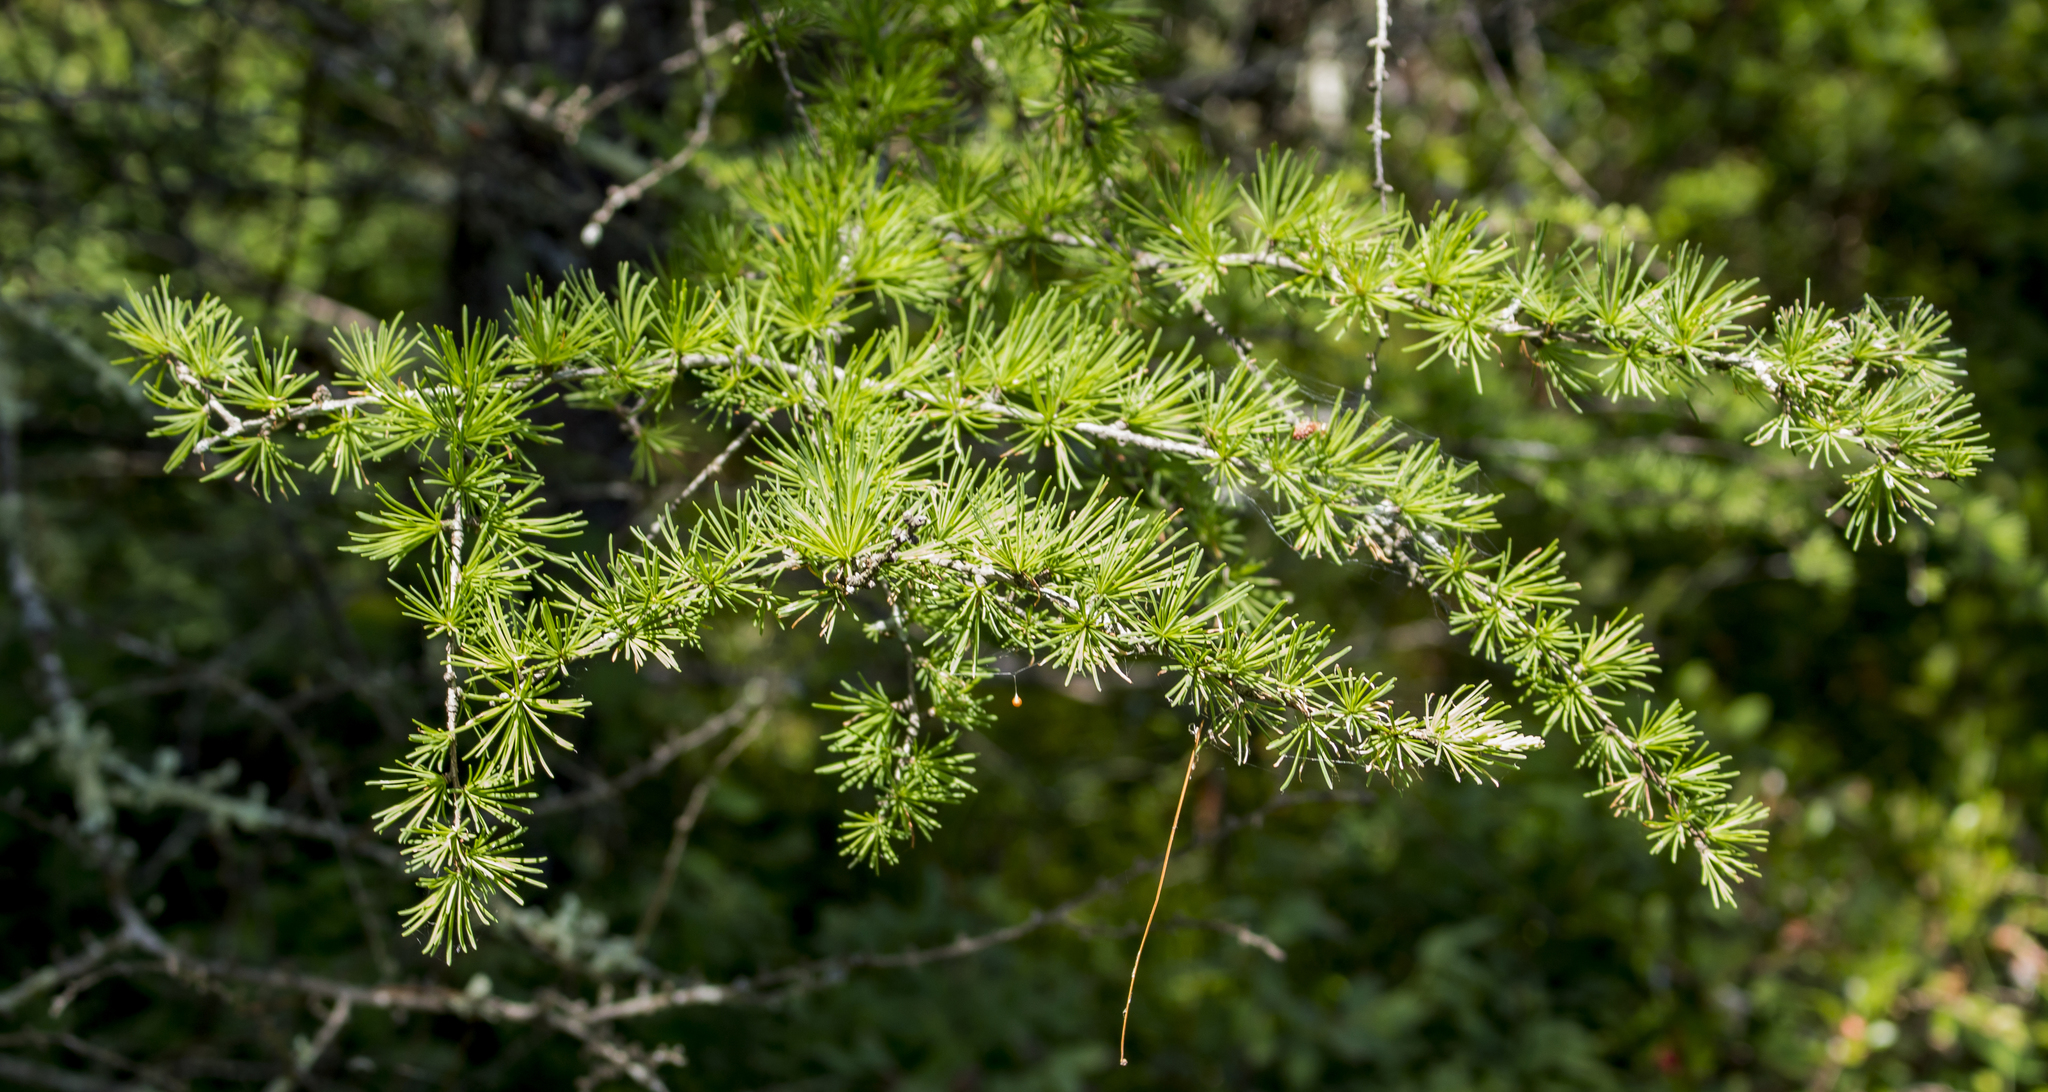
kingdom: Plantae
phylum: Tracheophyta
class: Pinopsida
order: Pinales
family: Pinaceae
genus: Larix
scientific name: Larix laricina
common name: American larch
